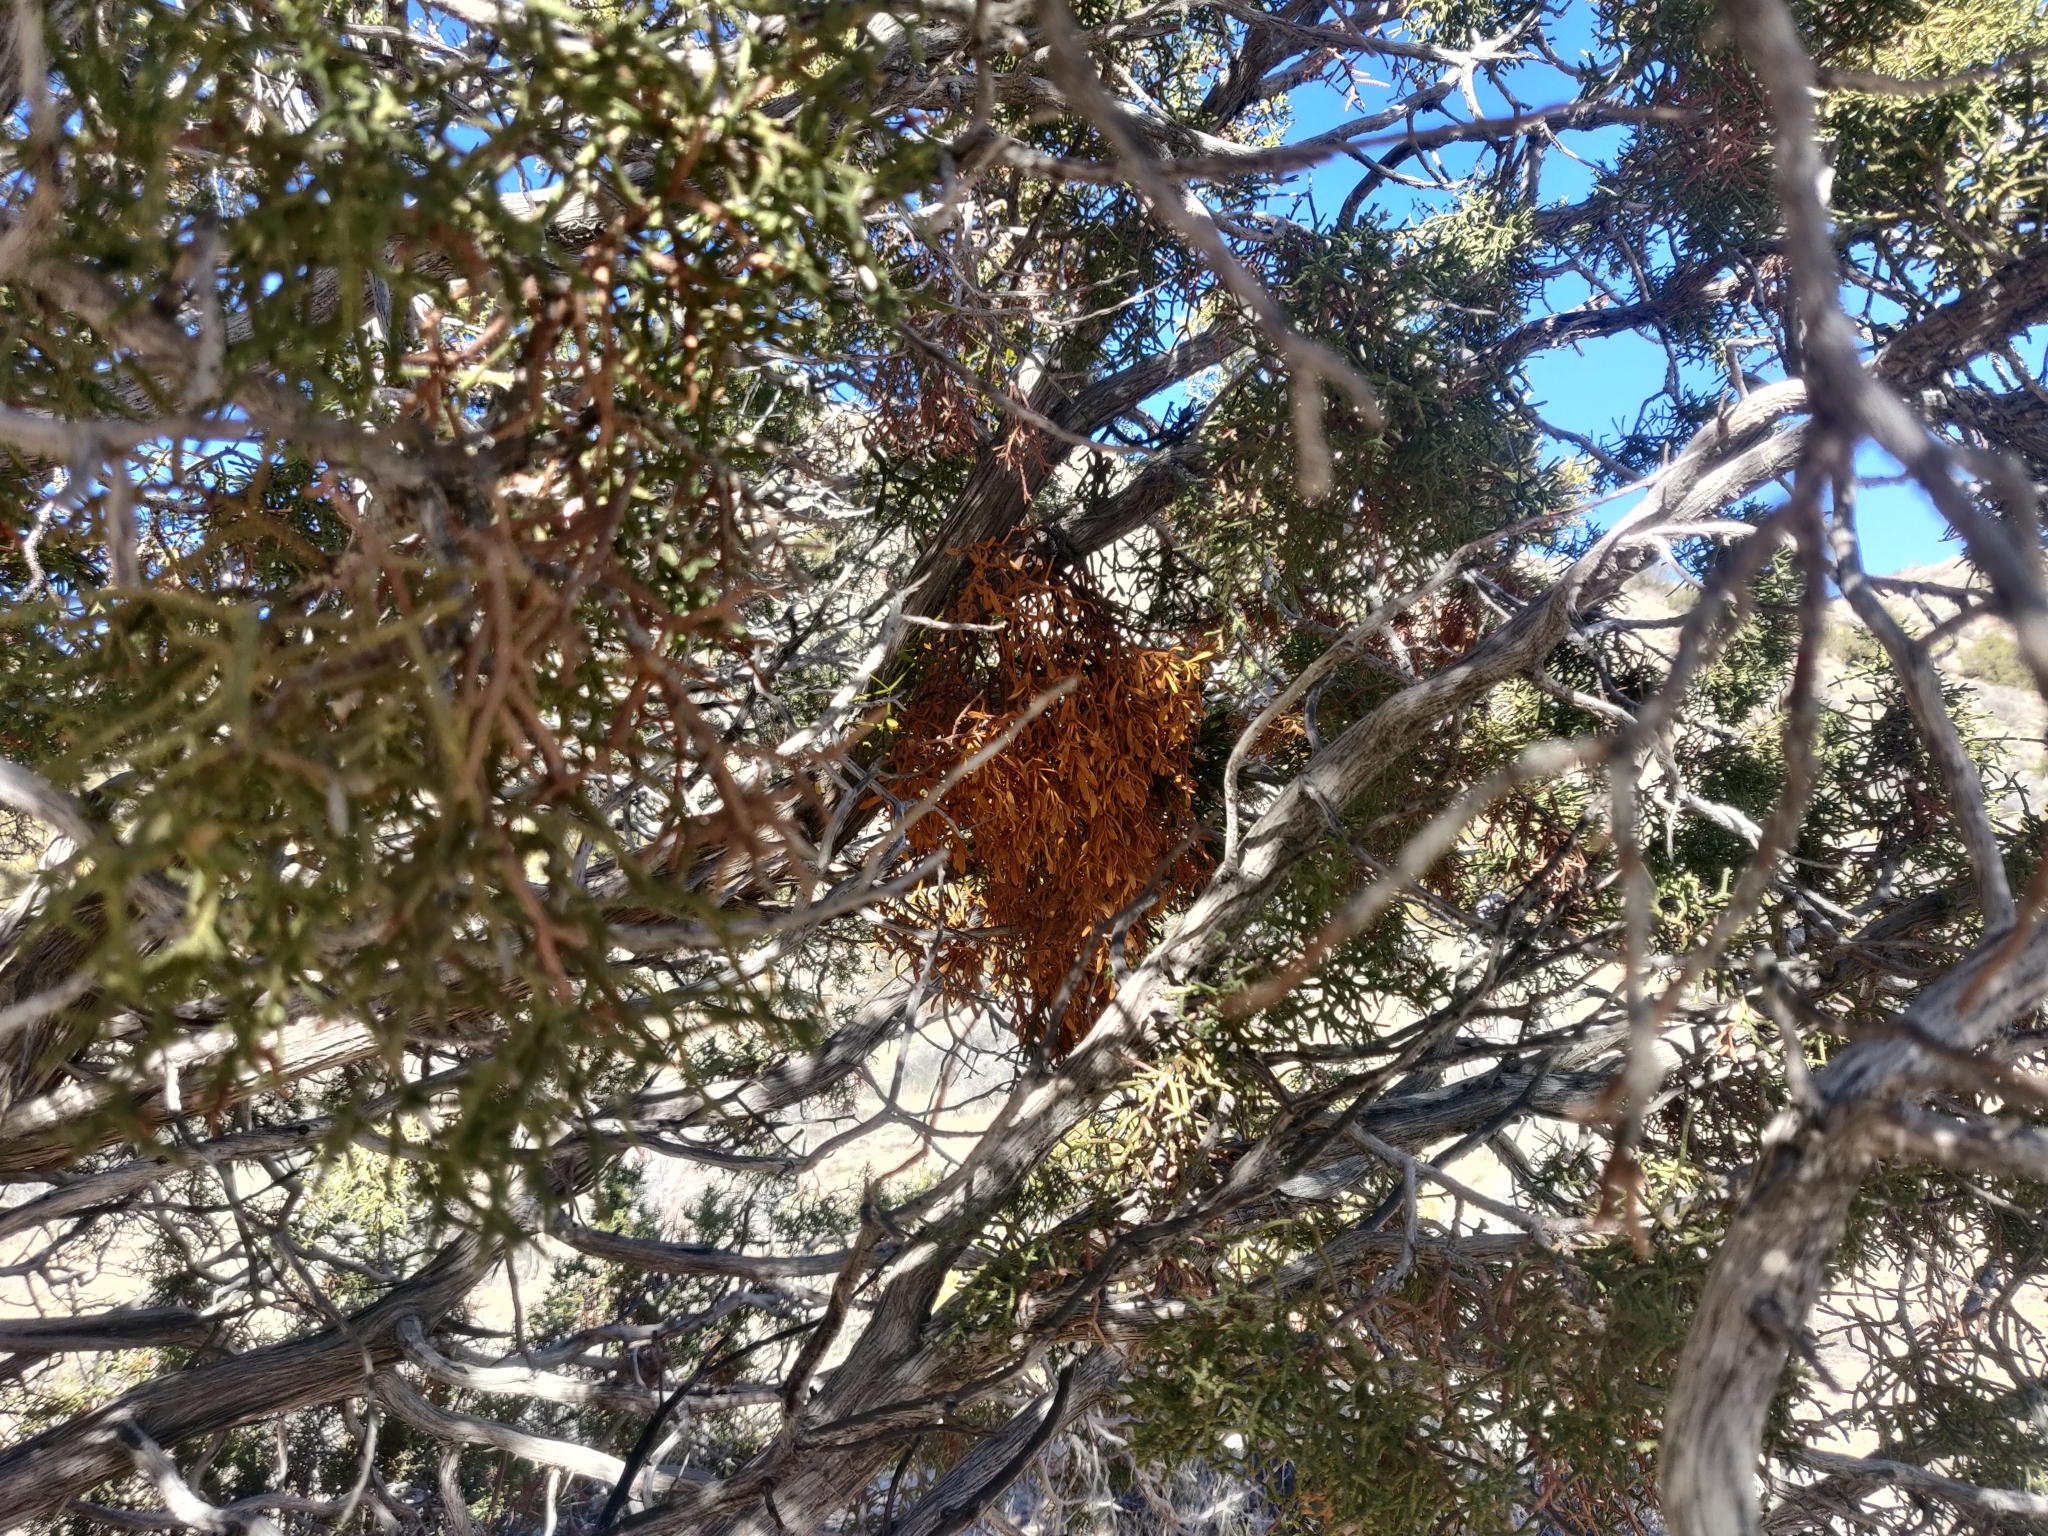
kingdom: Plantae
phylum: Tracheophyta
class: Magnoliopsida
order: Santalales
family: Viscaceae
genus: Phoradendron
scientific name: Phoradendron bolleanum
